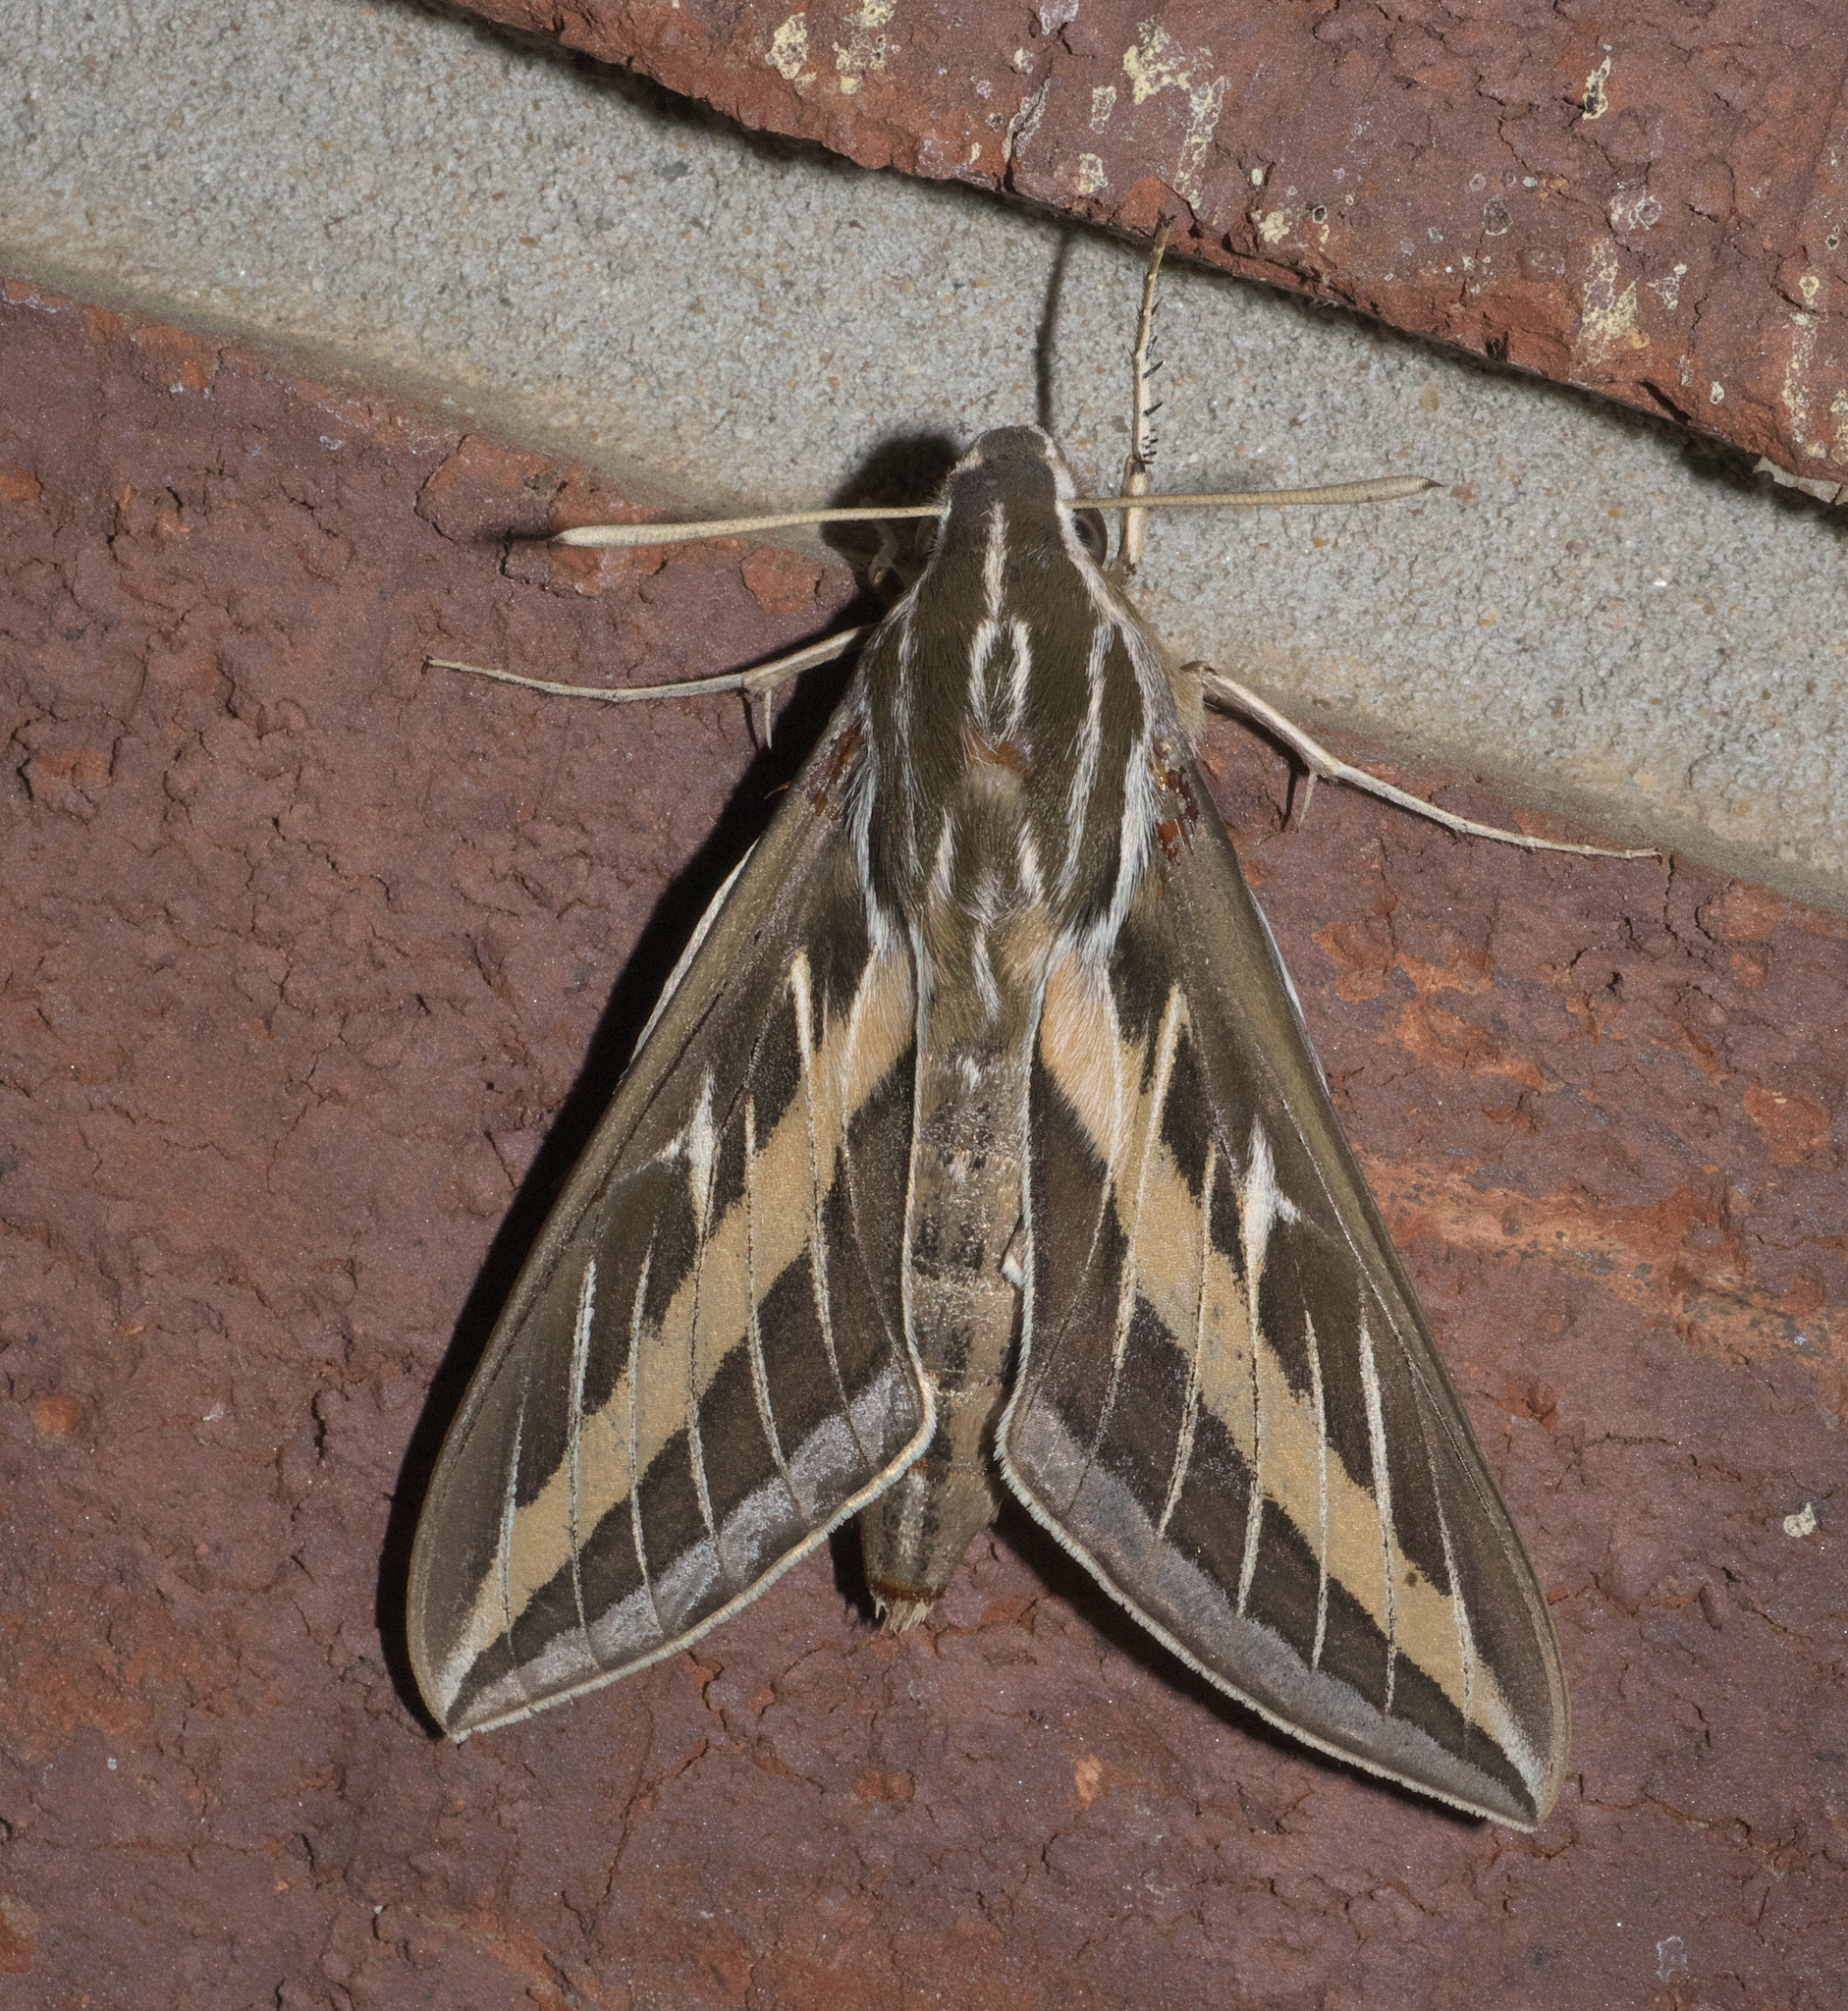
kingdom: Animalia
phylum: Arthropoda
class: Insecta
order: Lepidoptera
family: Sphingidae
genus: Hyles
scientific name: Hyles lineata
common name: White-lined sphinx
